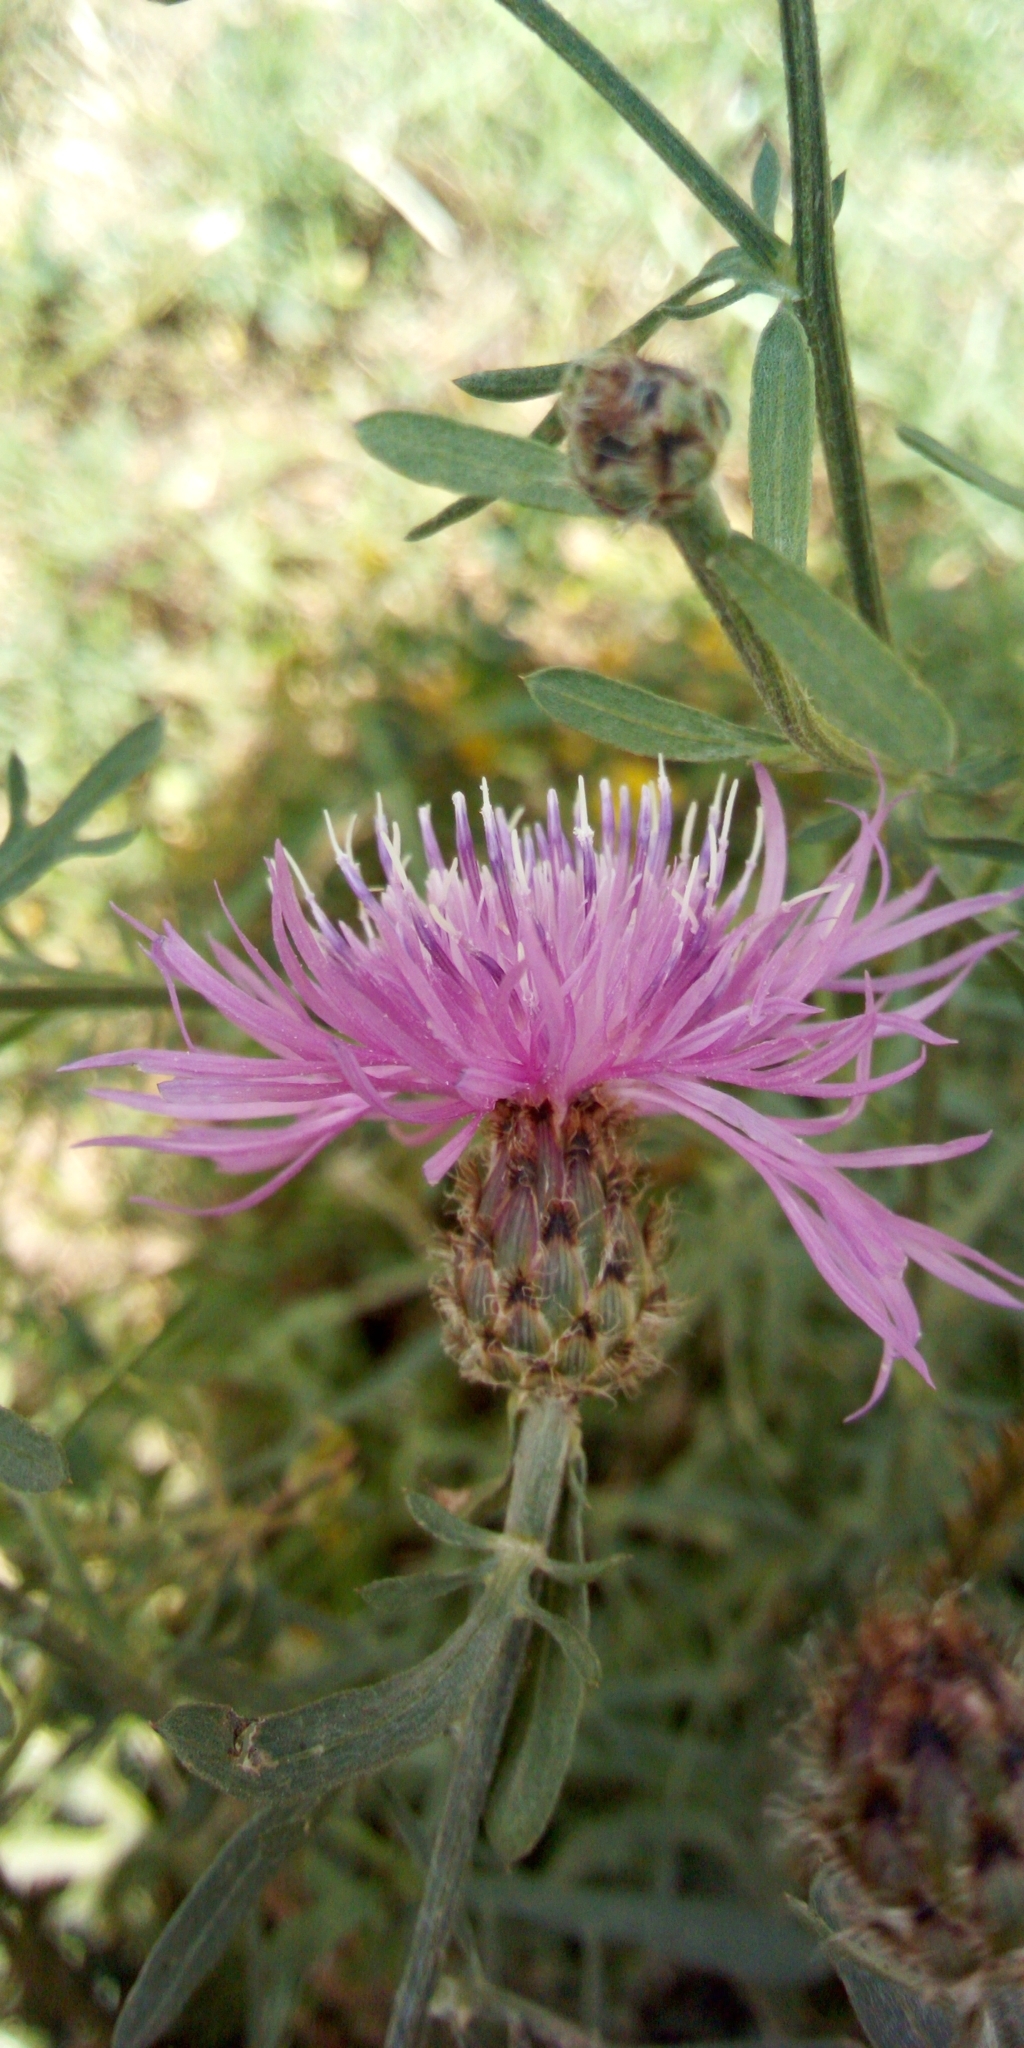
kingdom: Plantae
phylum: Tracheophyta
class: Magnoliopsida
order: Asterales
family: Asteraceae
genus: Centaurea
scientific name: Centaurea stoebe
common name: Spotted knapweed
